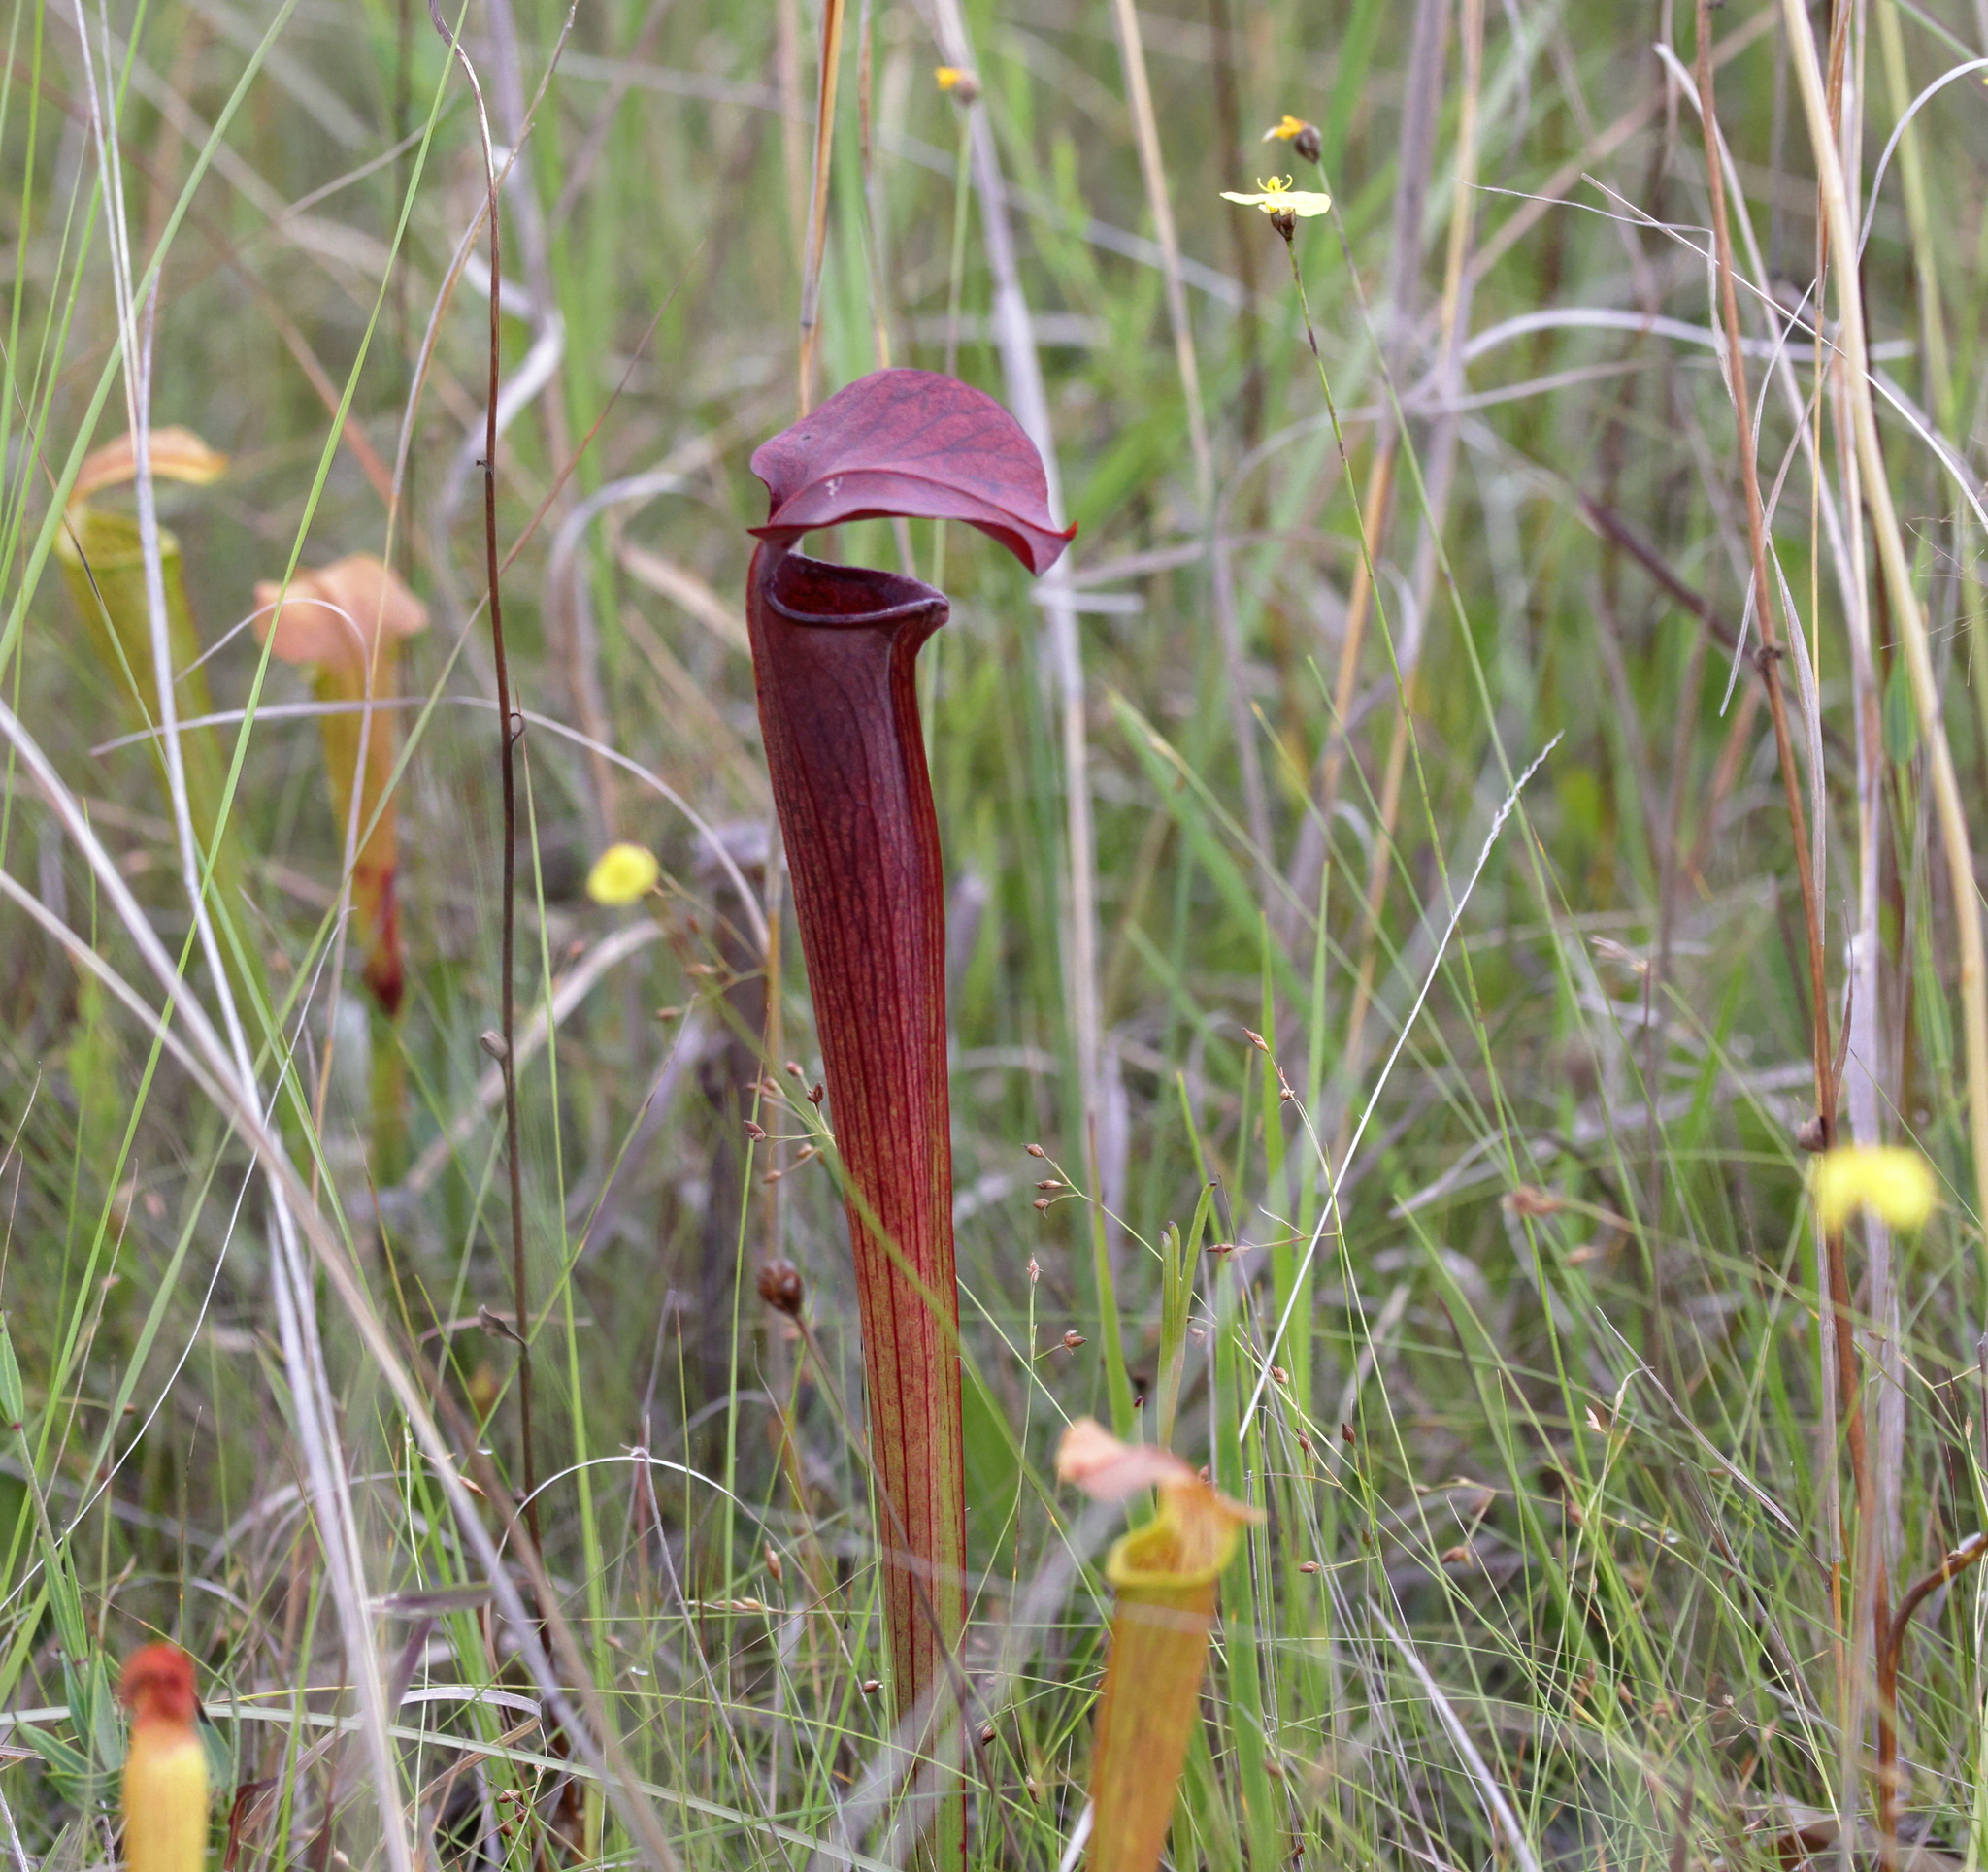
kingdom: Plantae
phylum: Tracheophyta
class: Magnoliopsida
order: Ericales
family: Sarraceniaceae
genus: Sarracenia
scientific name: Sarracenia alata
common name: Yellow trumpets
